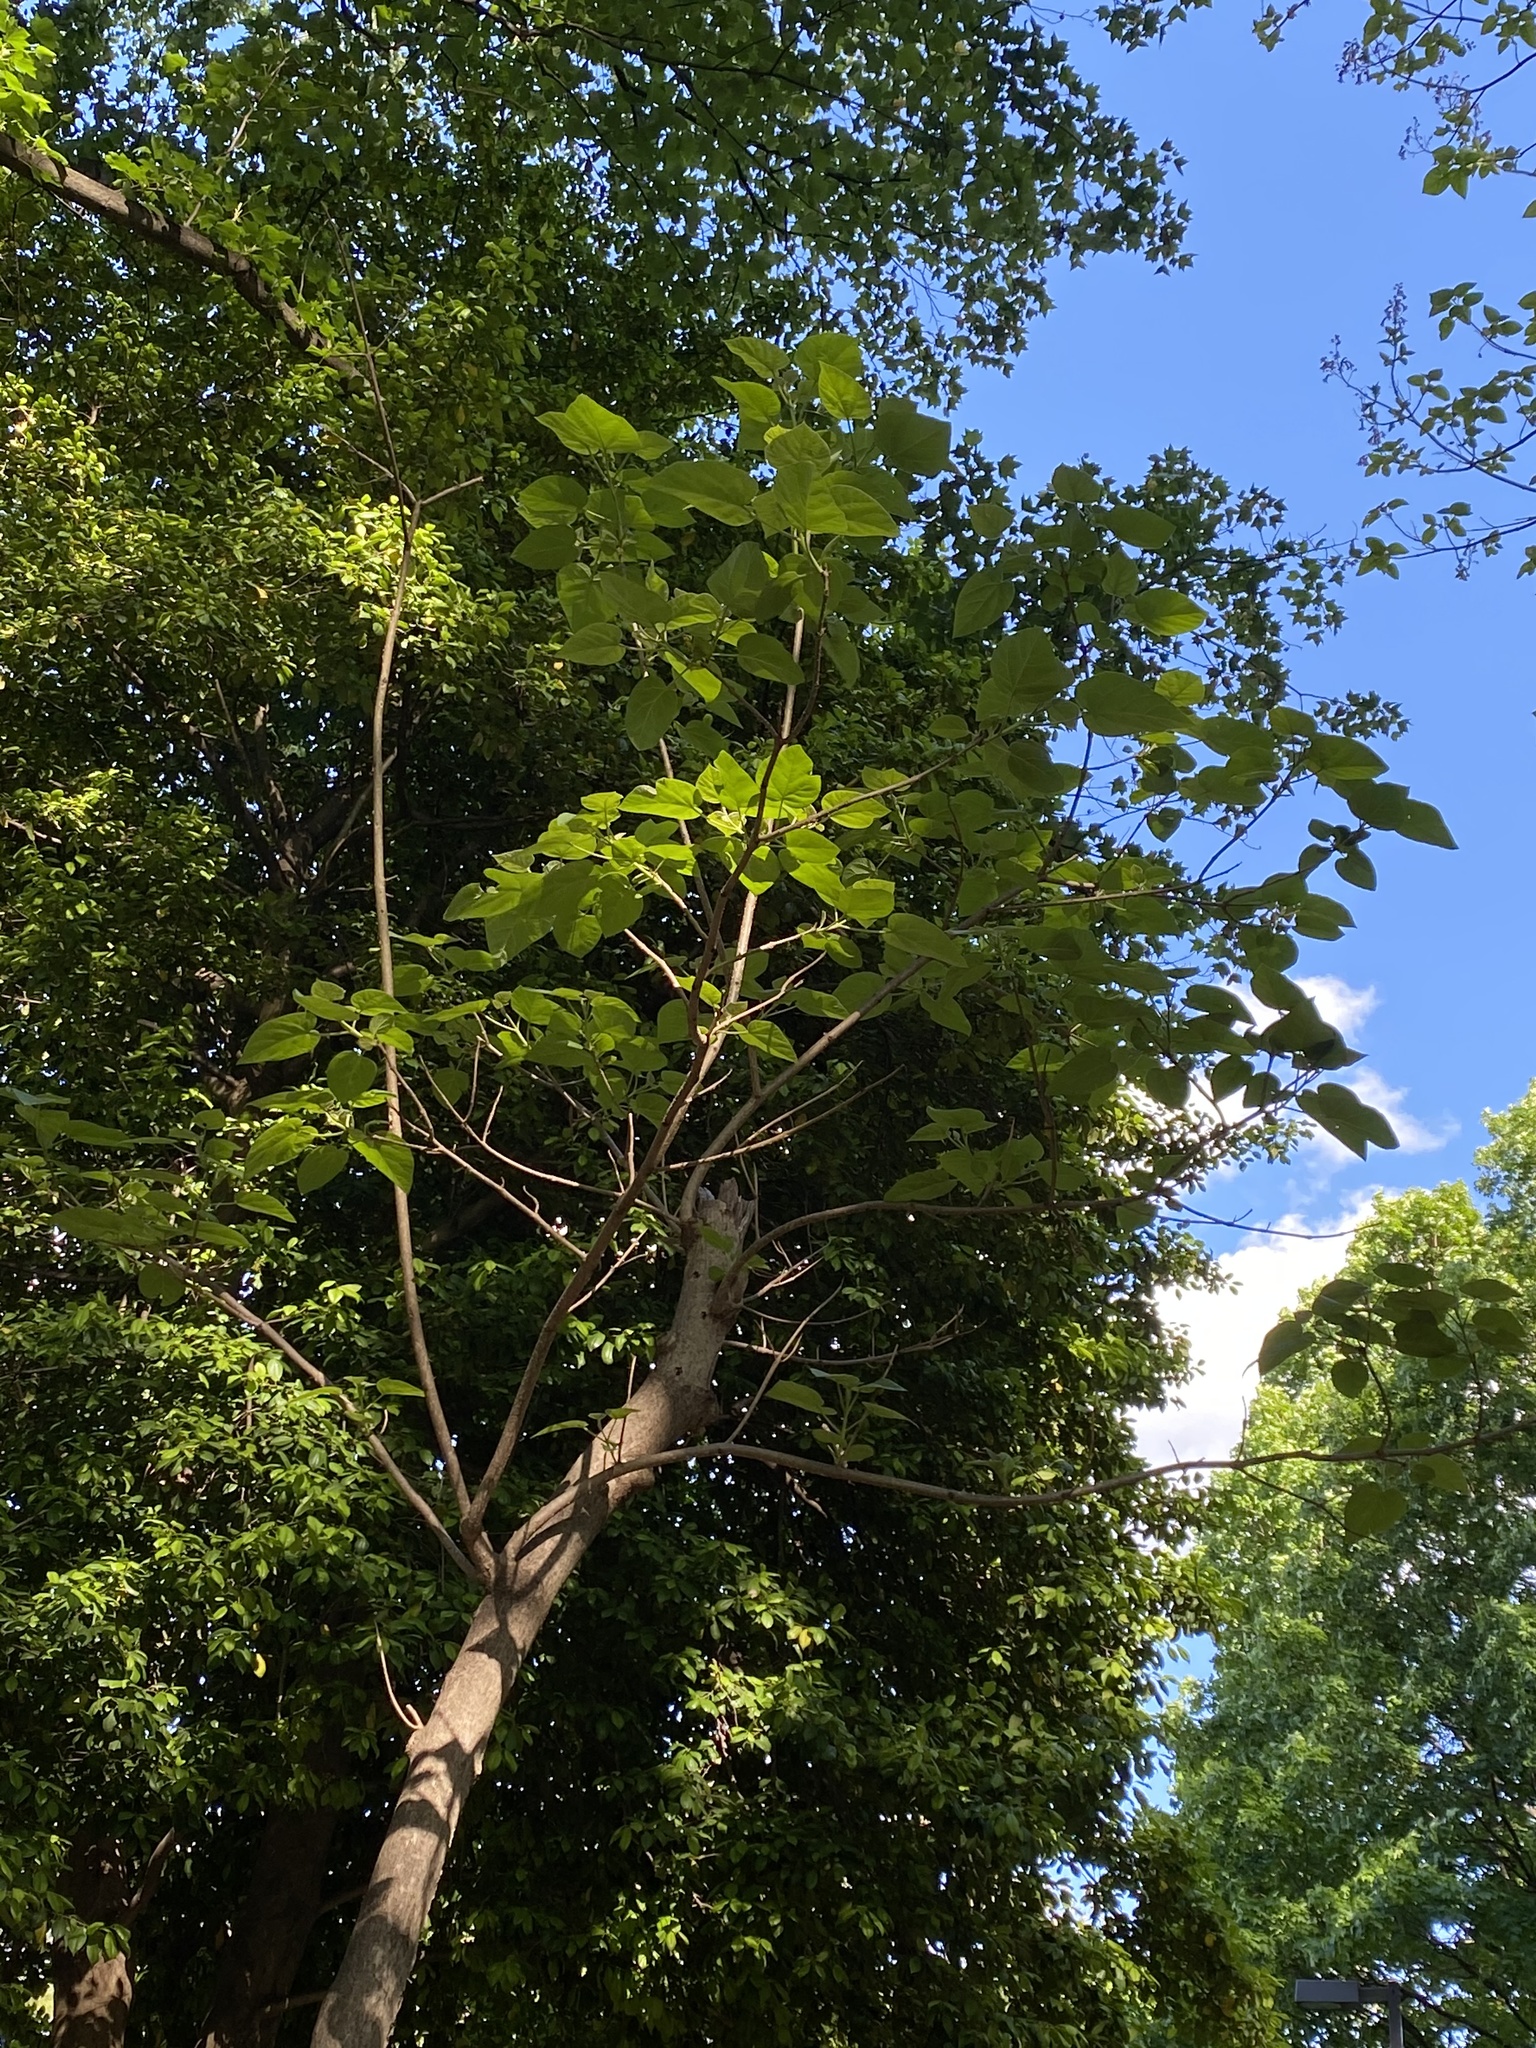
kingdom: Plantae
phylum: Tracheophyta
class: Magnoliopsida
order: Lamiales
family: Paulowniaceae
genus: Paulownia
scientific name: Paulownia tomentosa
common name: Foxglove-tree
